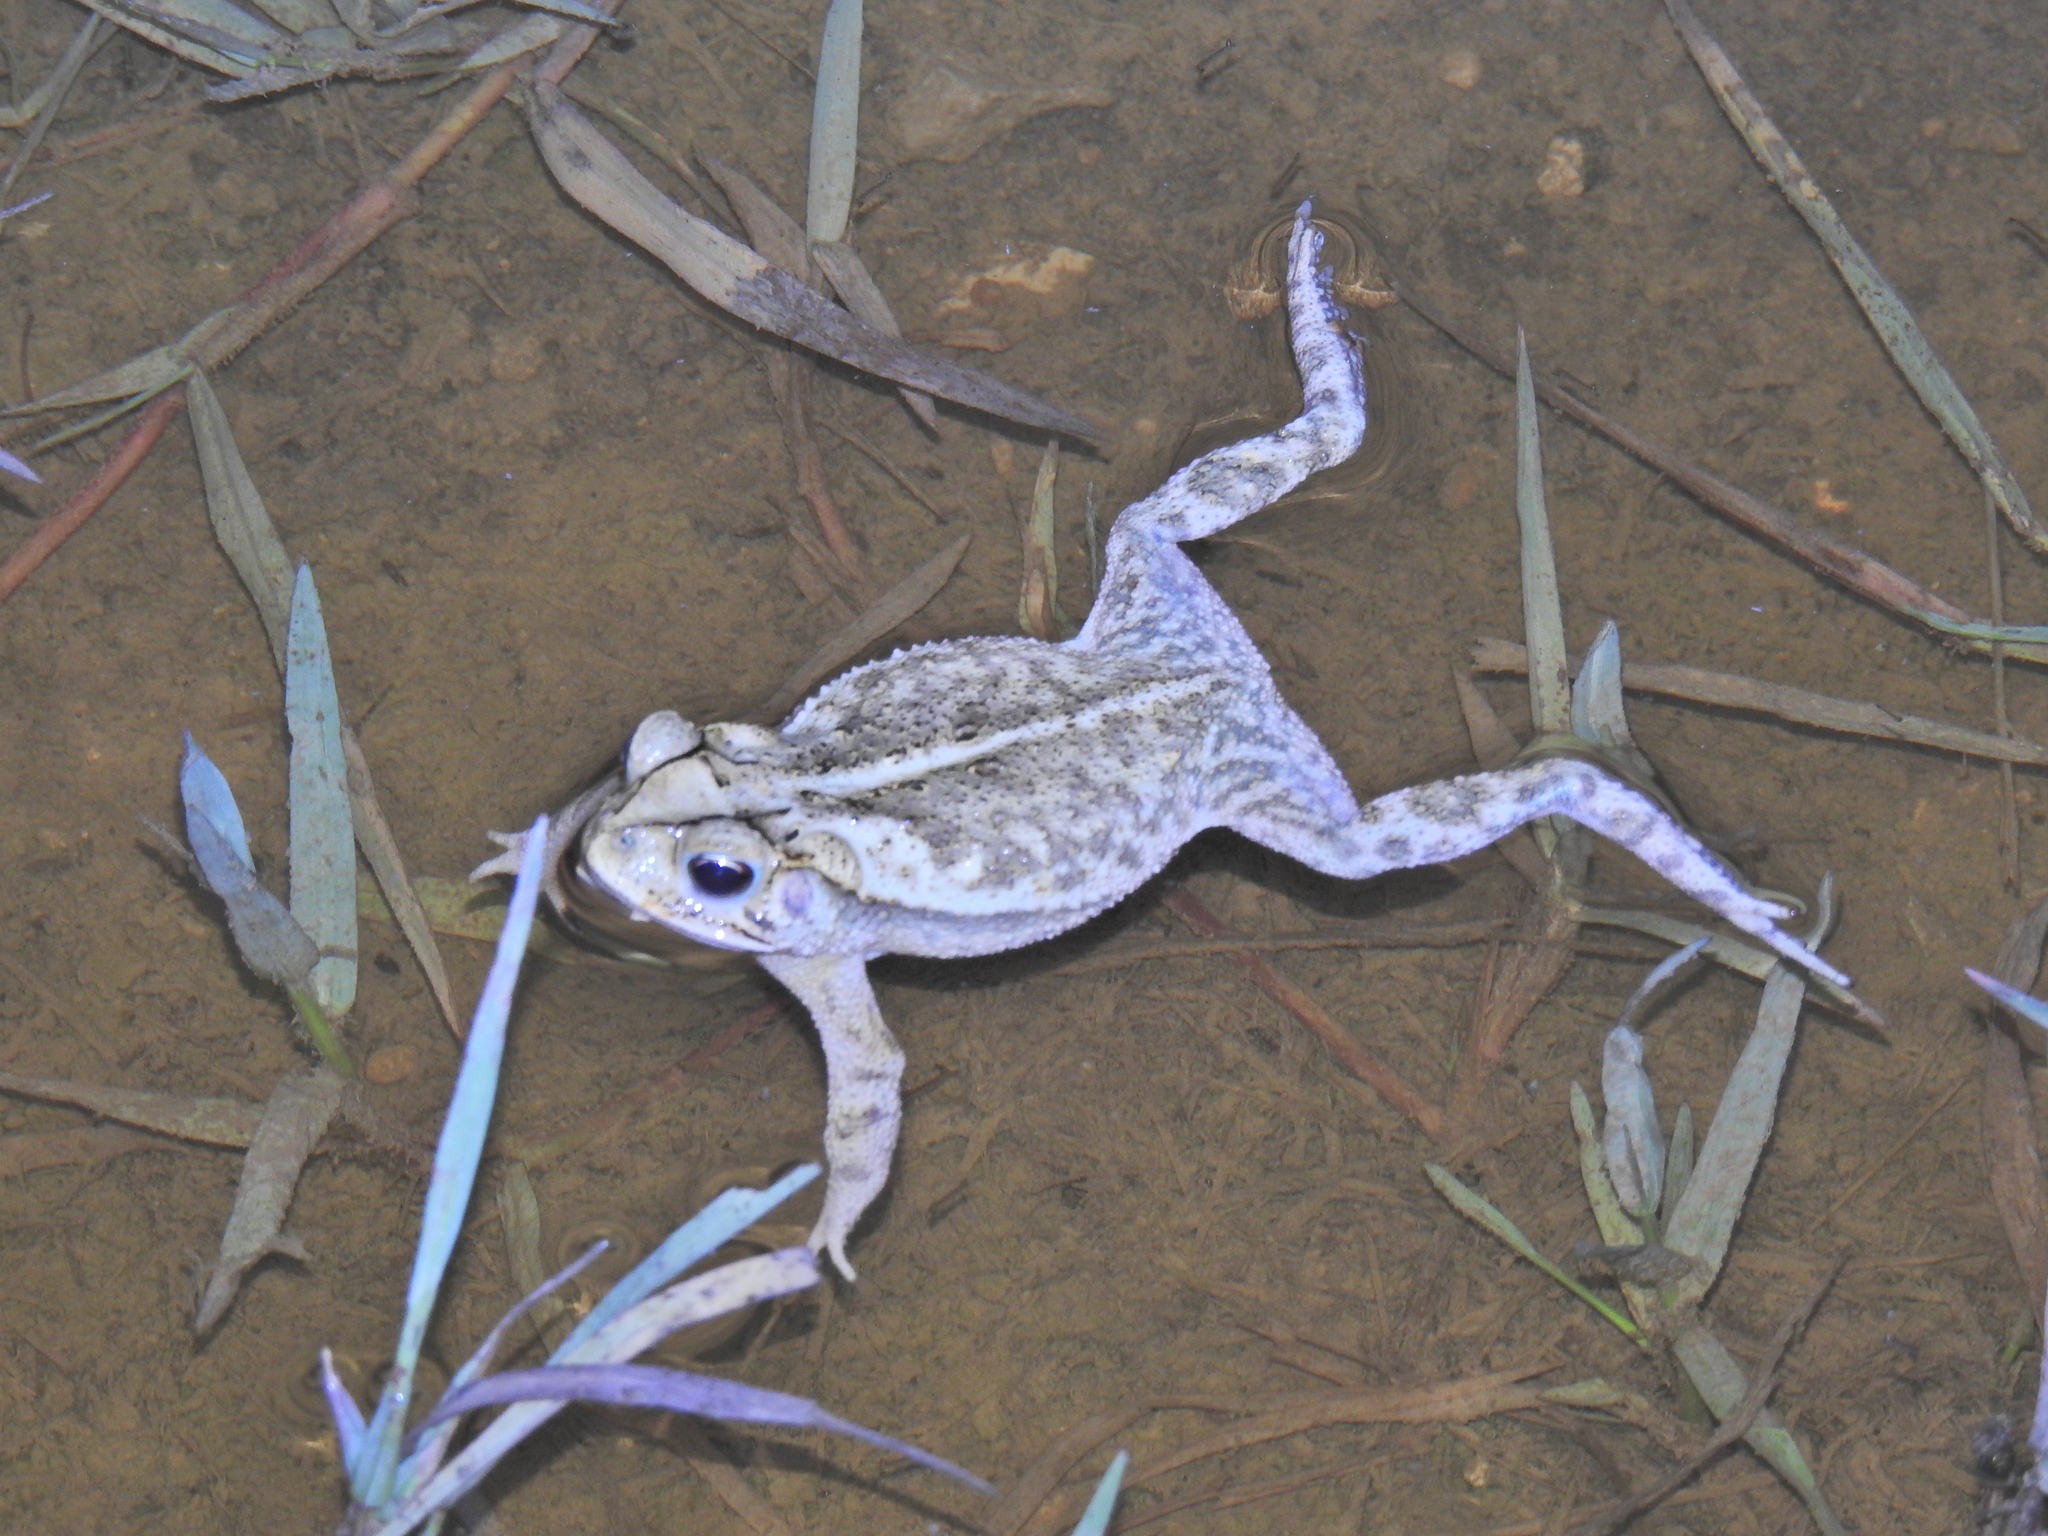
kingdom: Animalia
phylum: Chordata
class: Amphibia
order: Anura
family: Bufonidae
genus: Incilius
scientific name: Incilius nebulifer
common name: Gulf coast toad
